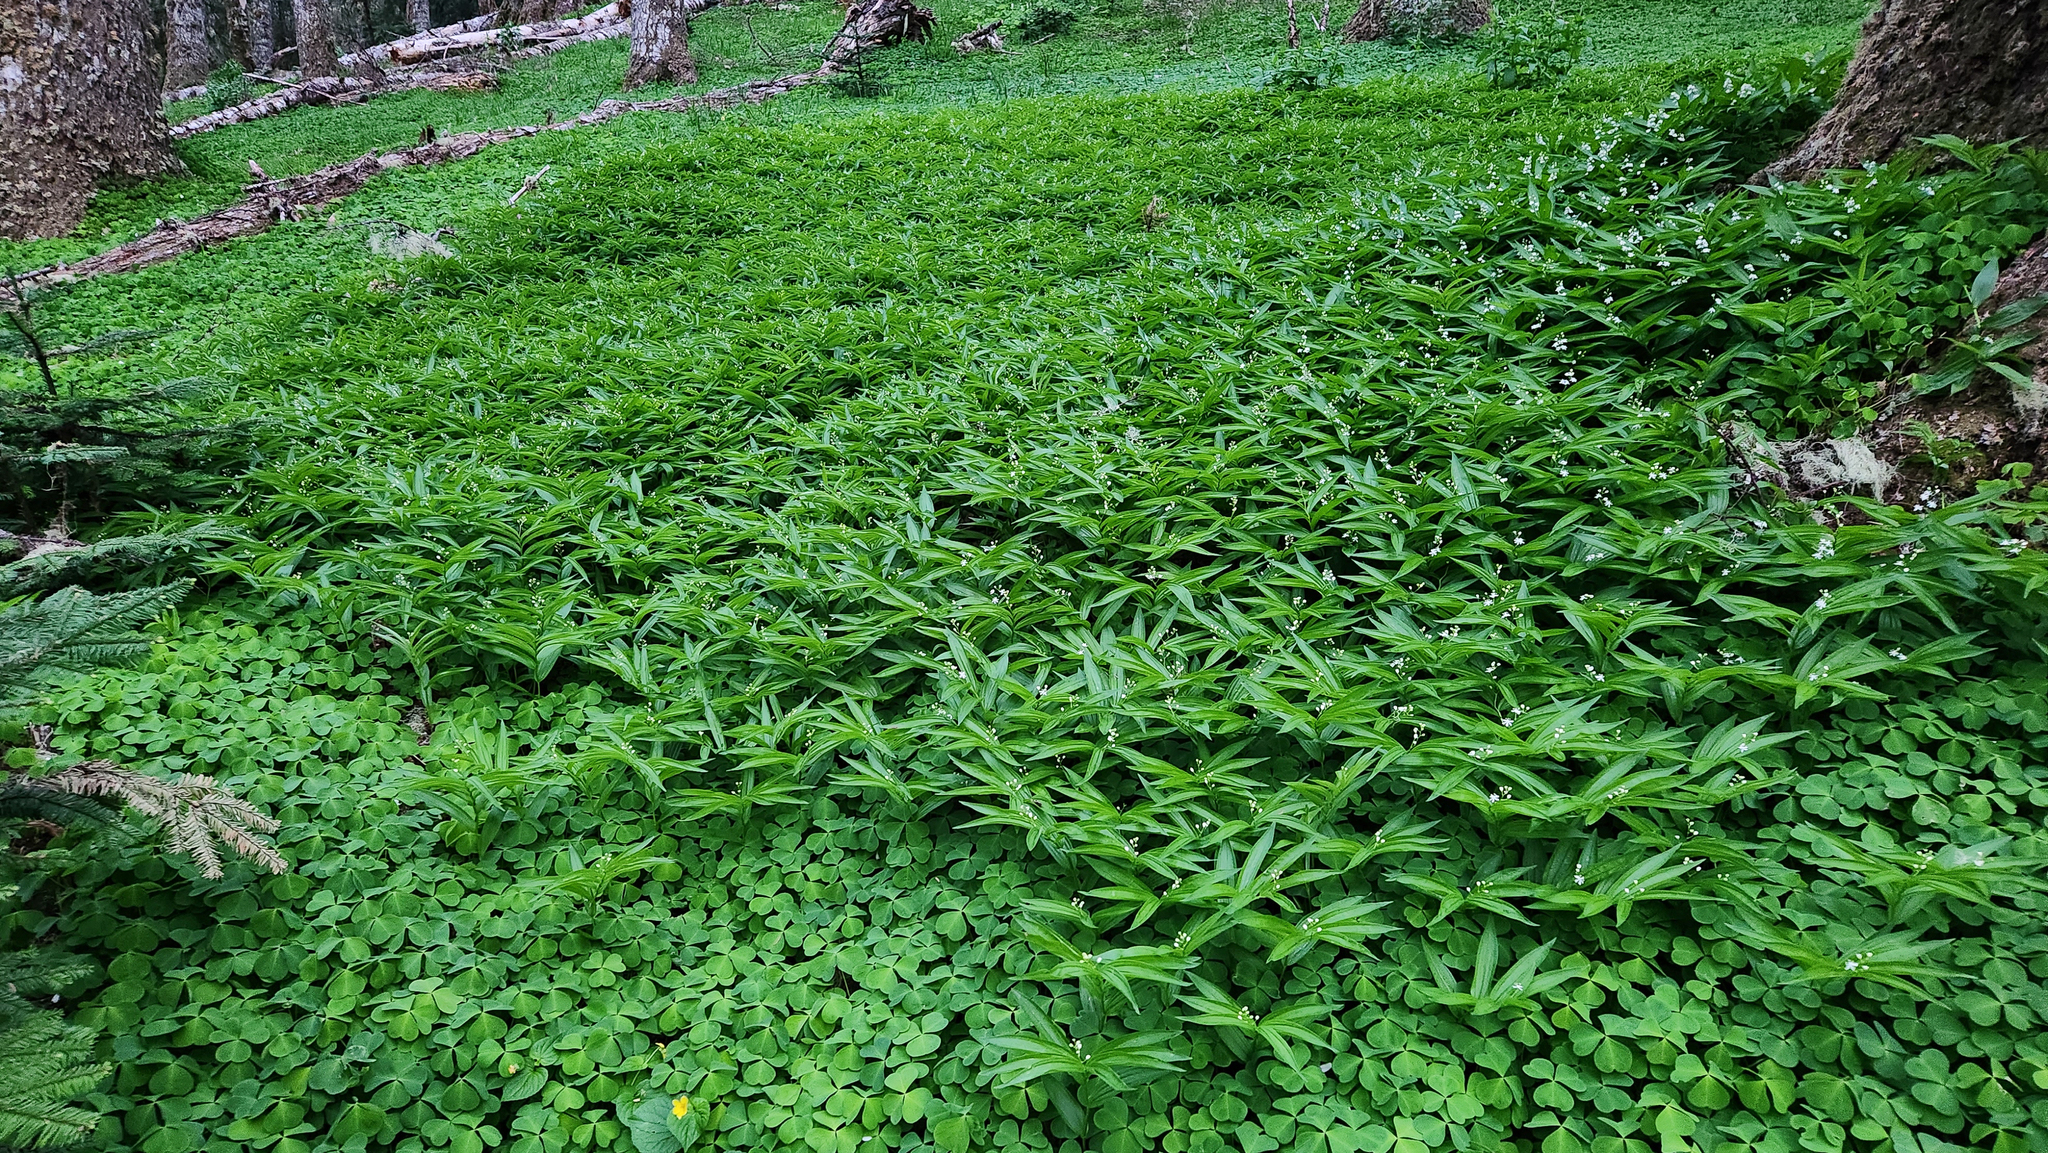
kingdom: Plantae
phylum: Tracheophyta
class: Liliopsida
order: Asparagales
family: Asparagaceae
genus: Maianthemum
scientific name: Maianthemum stellatum
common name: Little false solomon's seal
